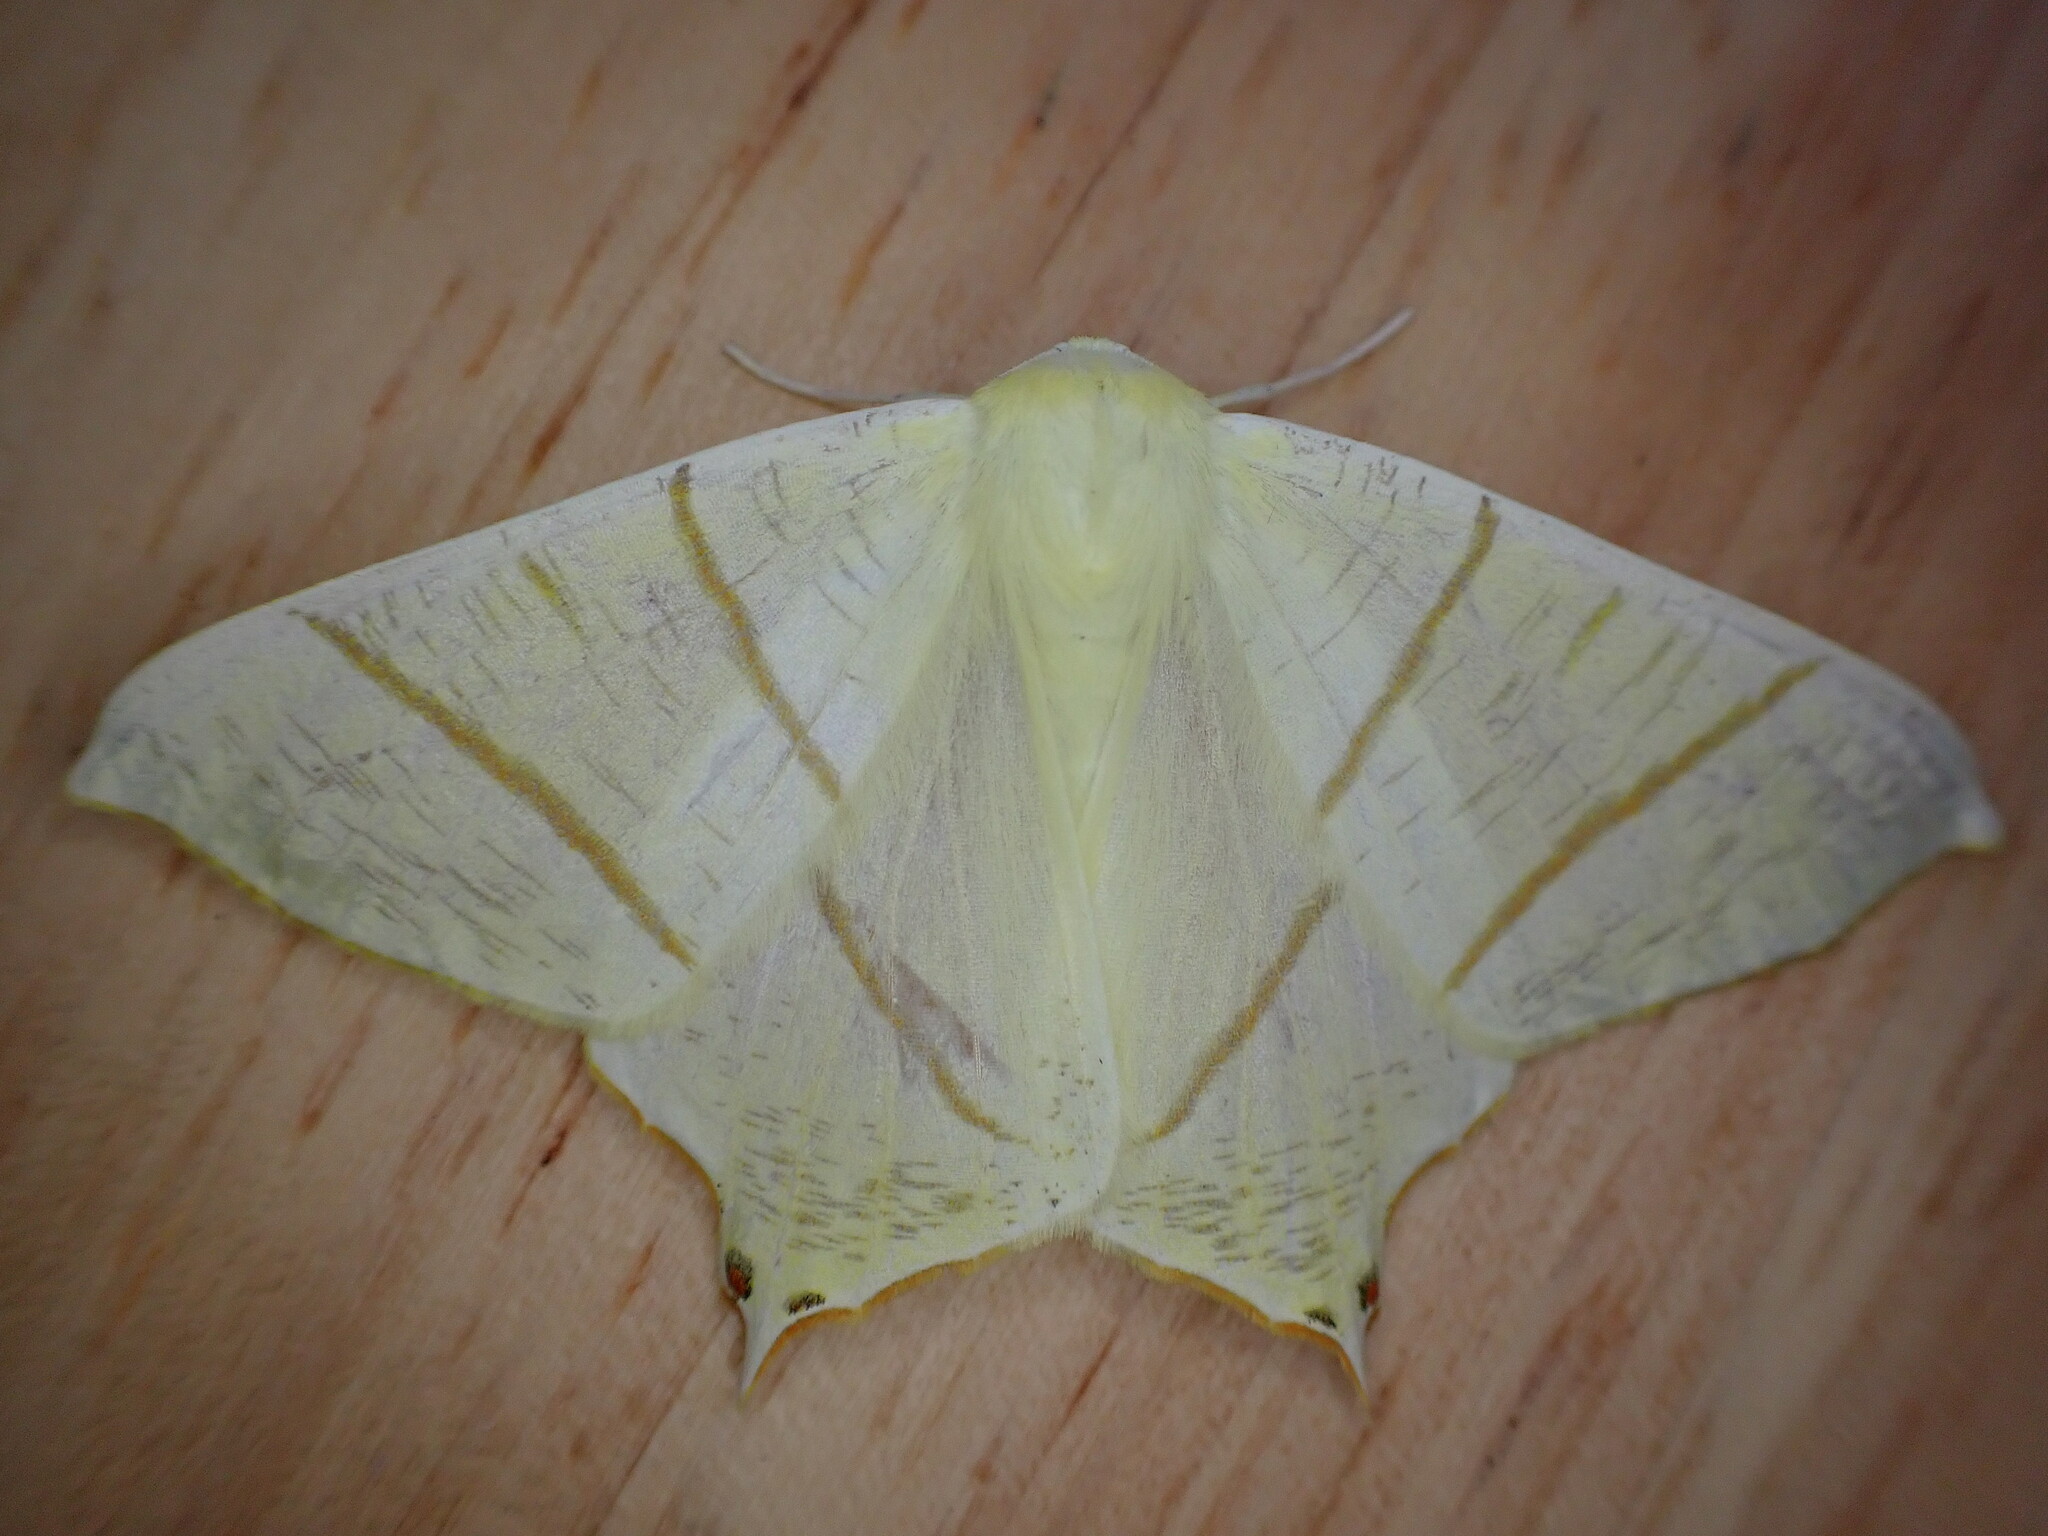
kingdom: Animalia
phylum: Arthropoda
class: Insecta
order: Lepidoptera
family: Geometridae
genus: Ourapteryx
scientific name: Ourapteryx sambucaria
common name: Swallow-tailed moth
